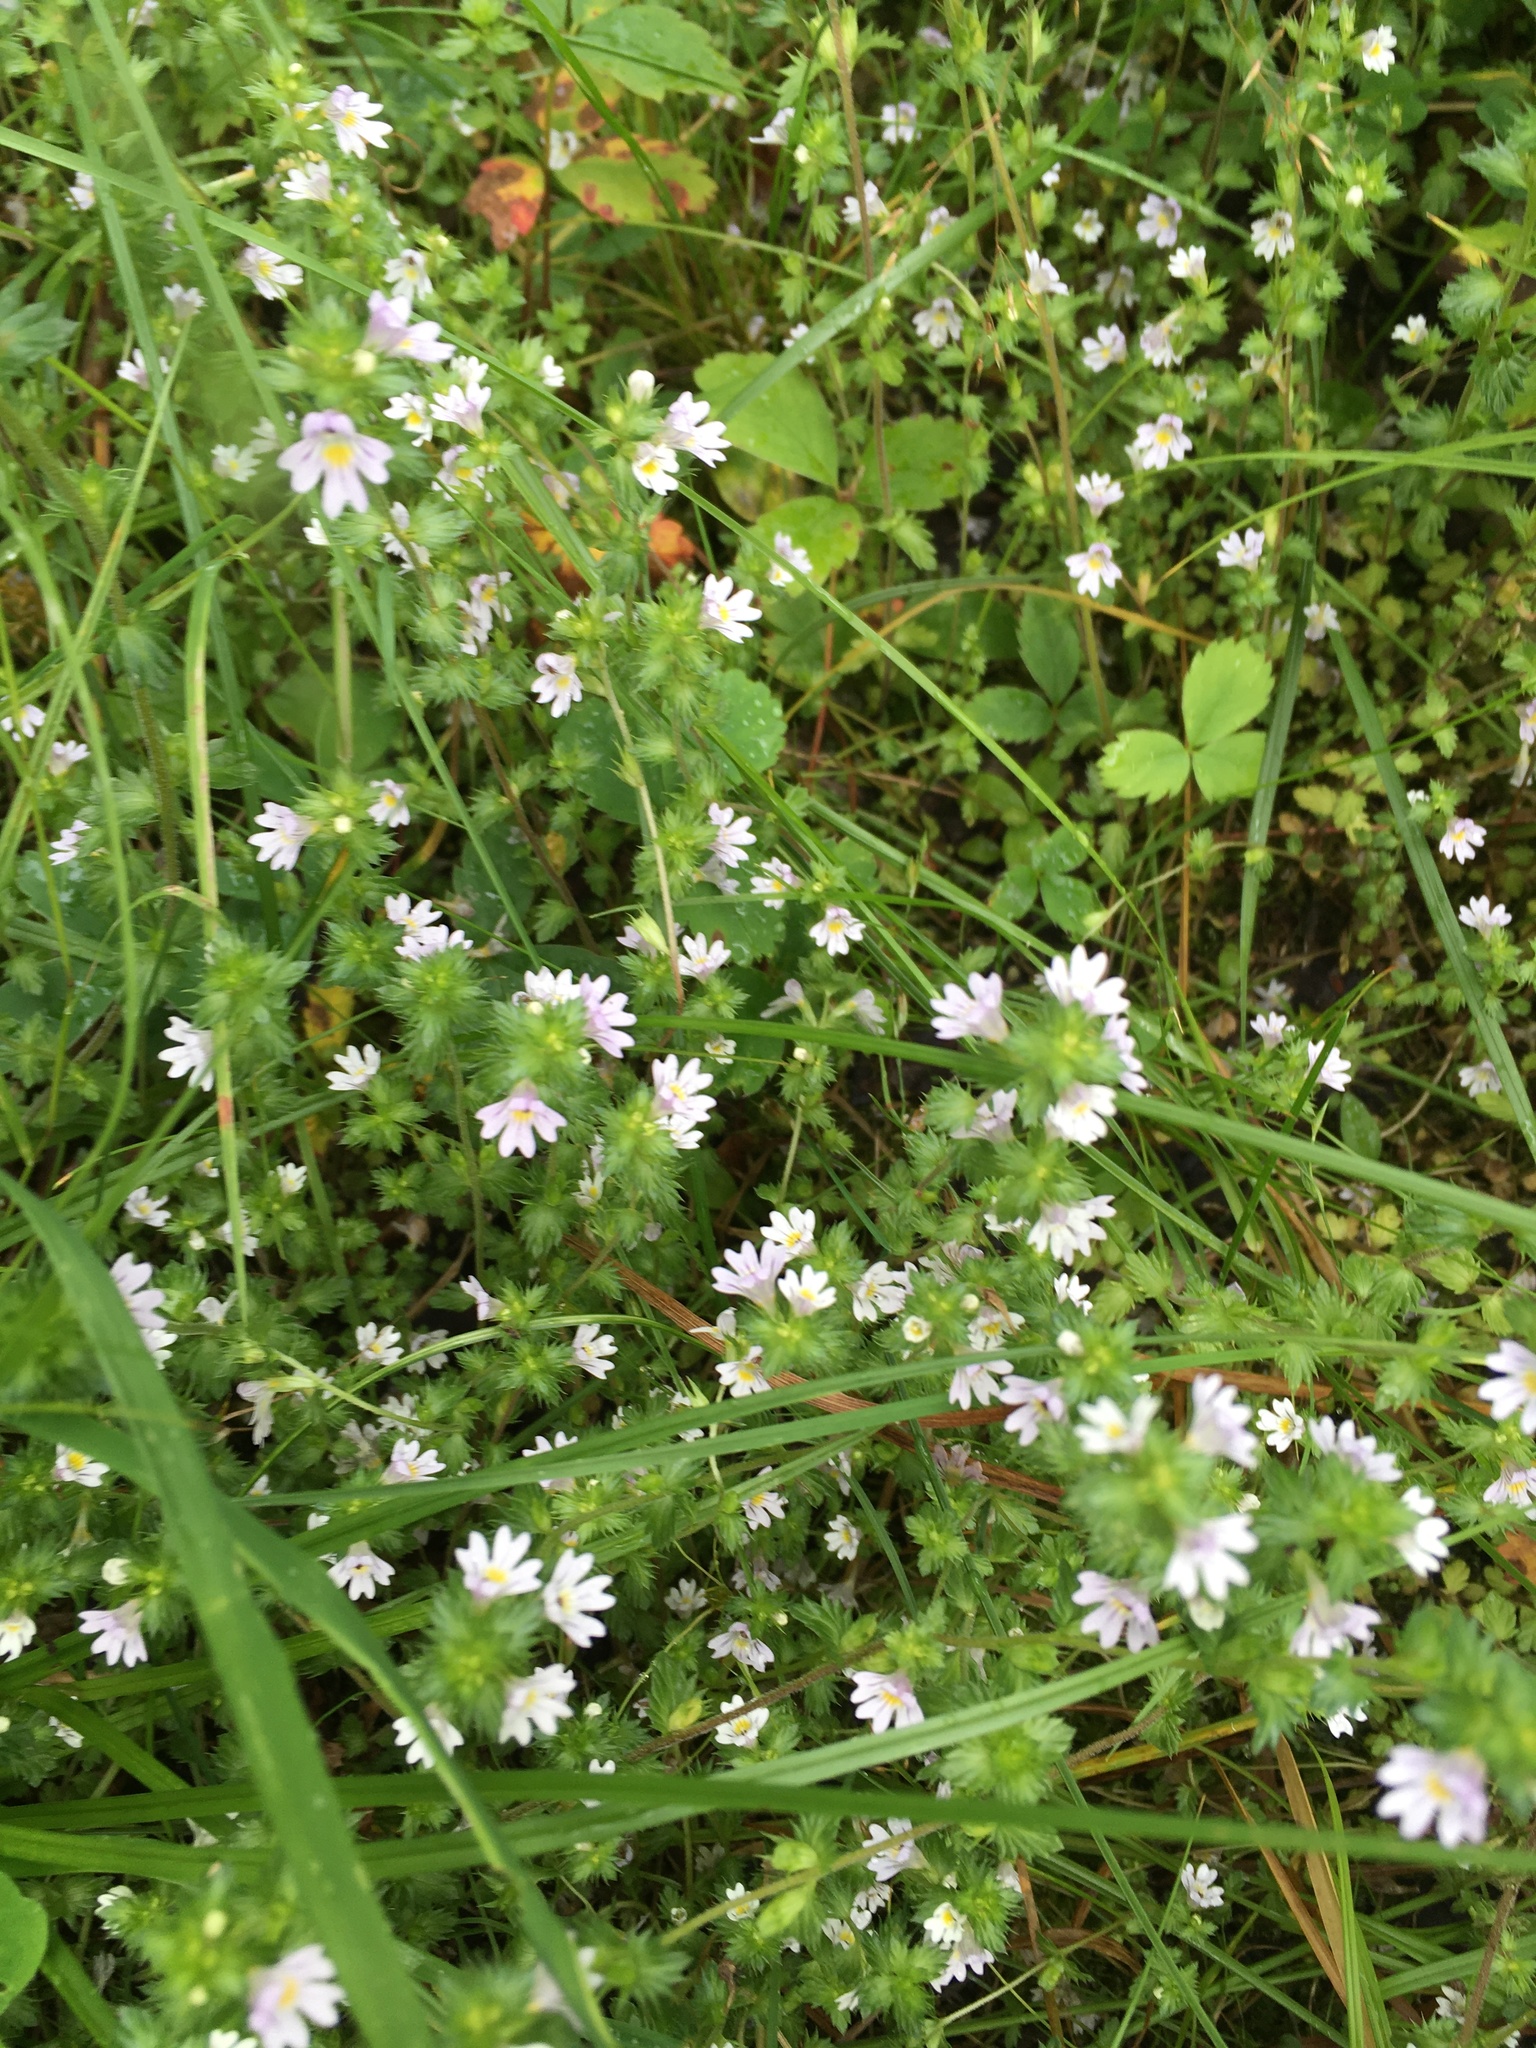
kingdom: Plantae
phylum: Tracheophyta
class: Magnoliopsida
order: Lamiales
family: Orobanchaceae
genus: Euphrasia
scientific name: Euphrasia nemorosa
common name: Common eyebright
